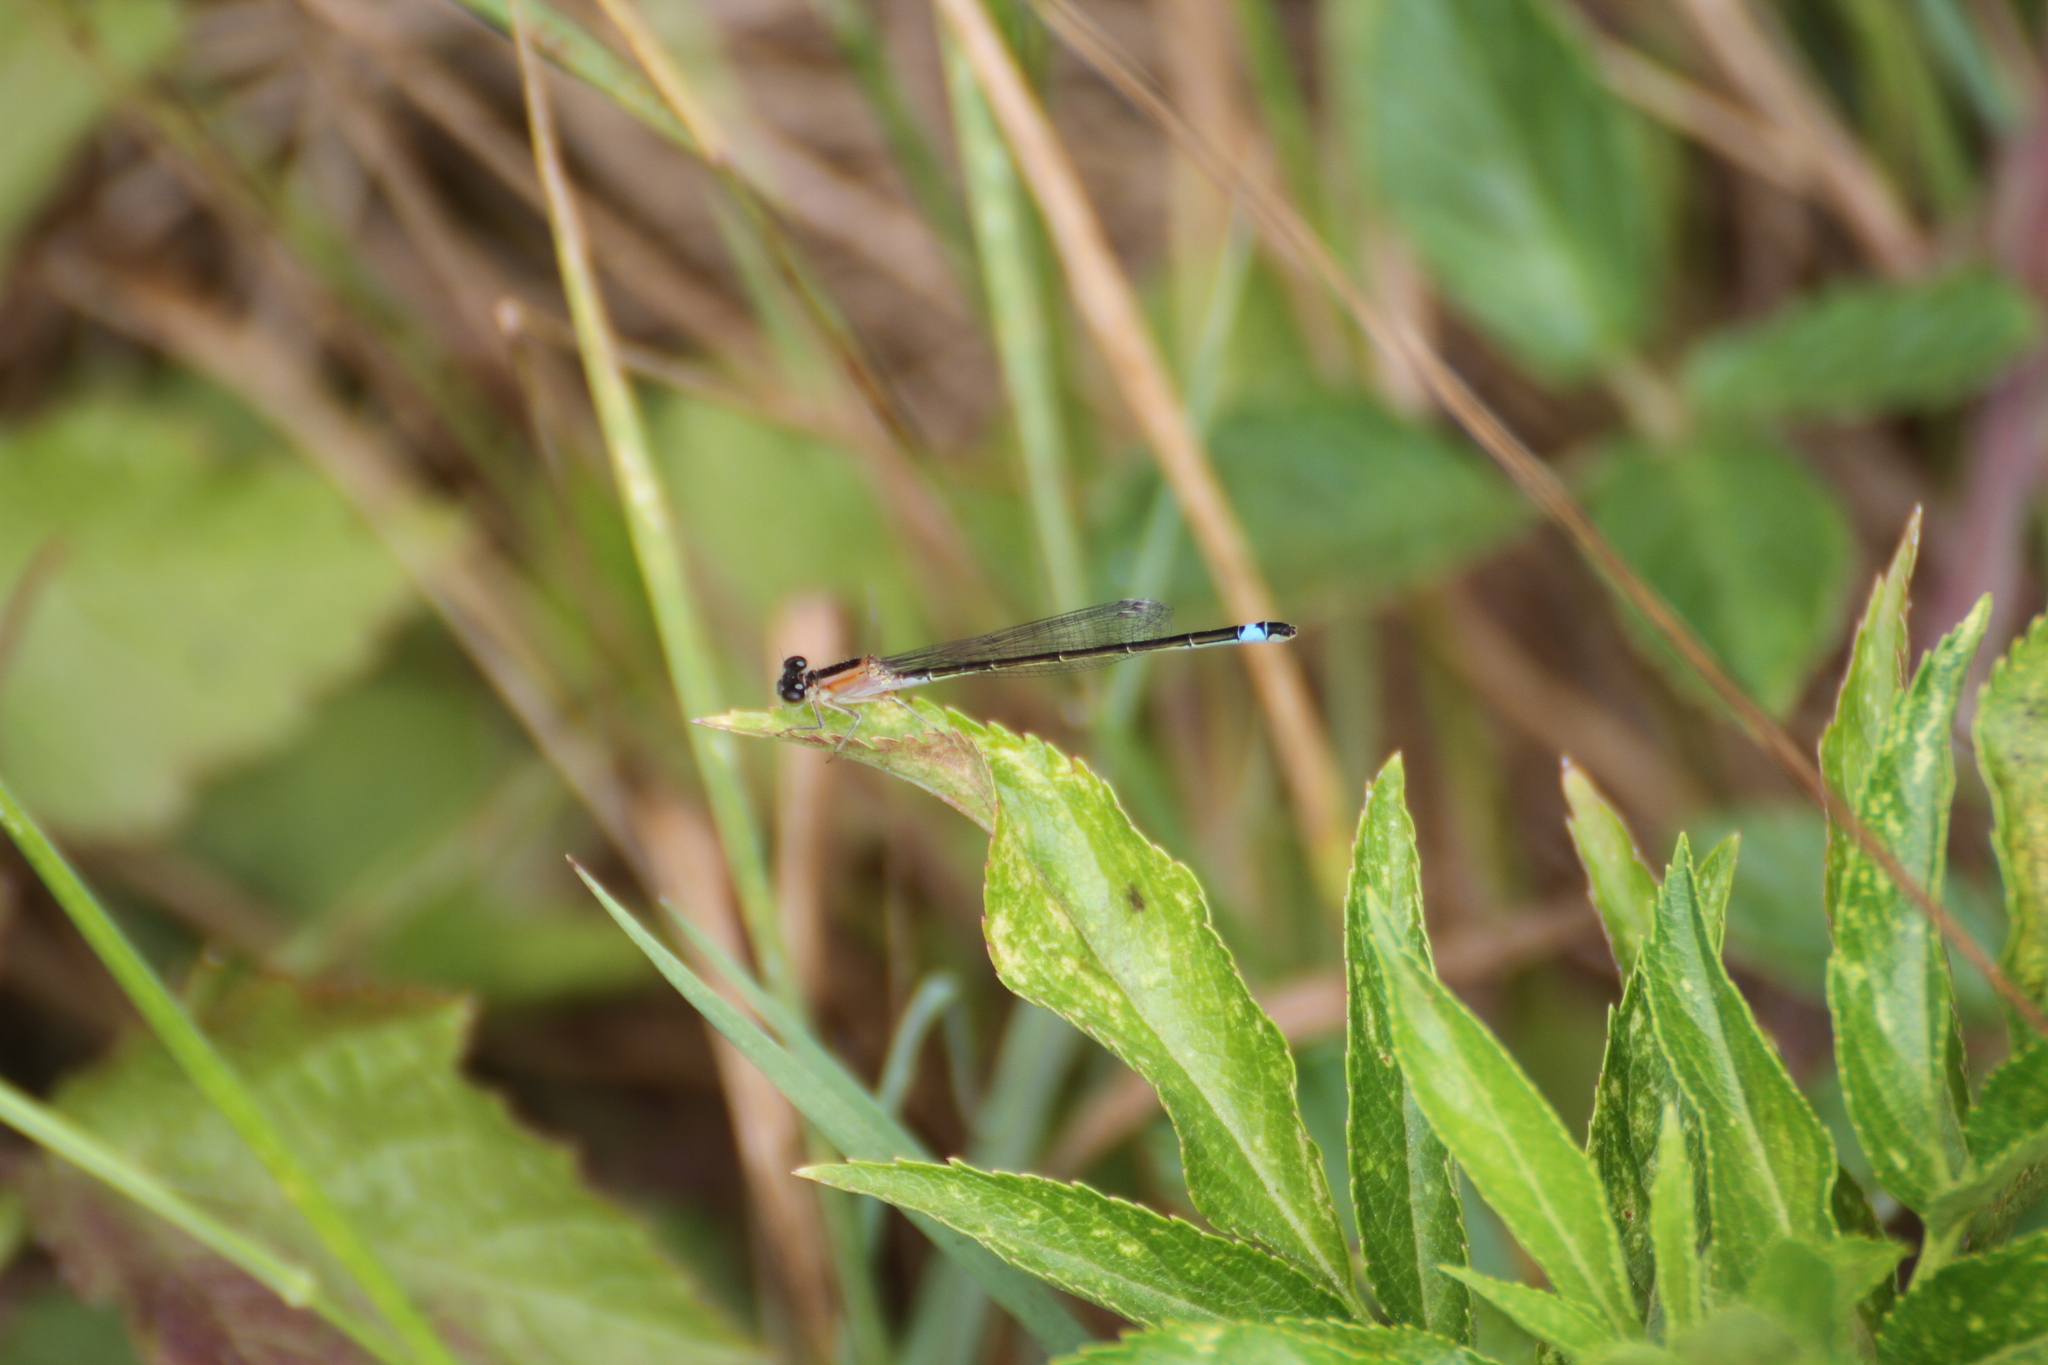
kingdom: Animalia
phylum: Arthropoda
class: Insecta
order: Odonata
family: Coenagrionidae
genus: Ischnura
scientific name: Ischnura elegans
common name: Blue-tailed damselfly
